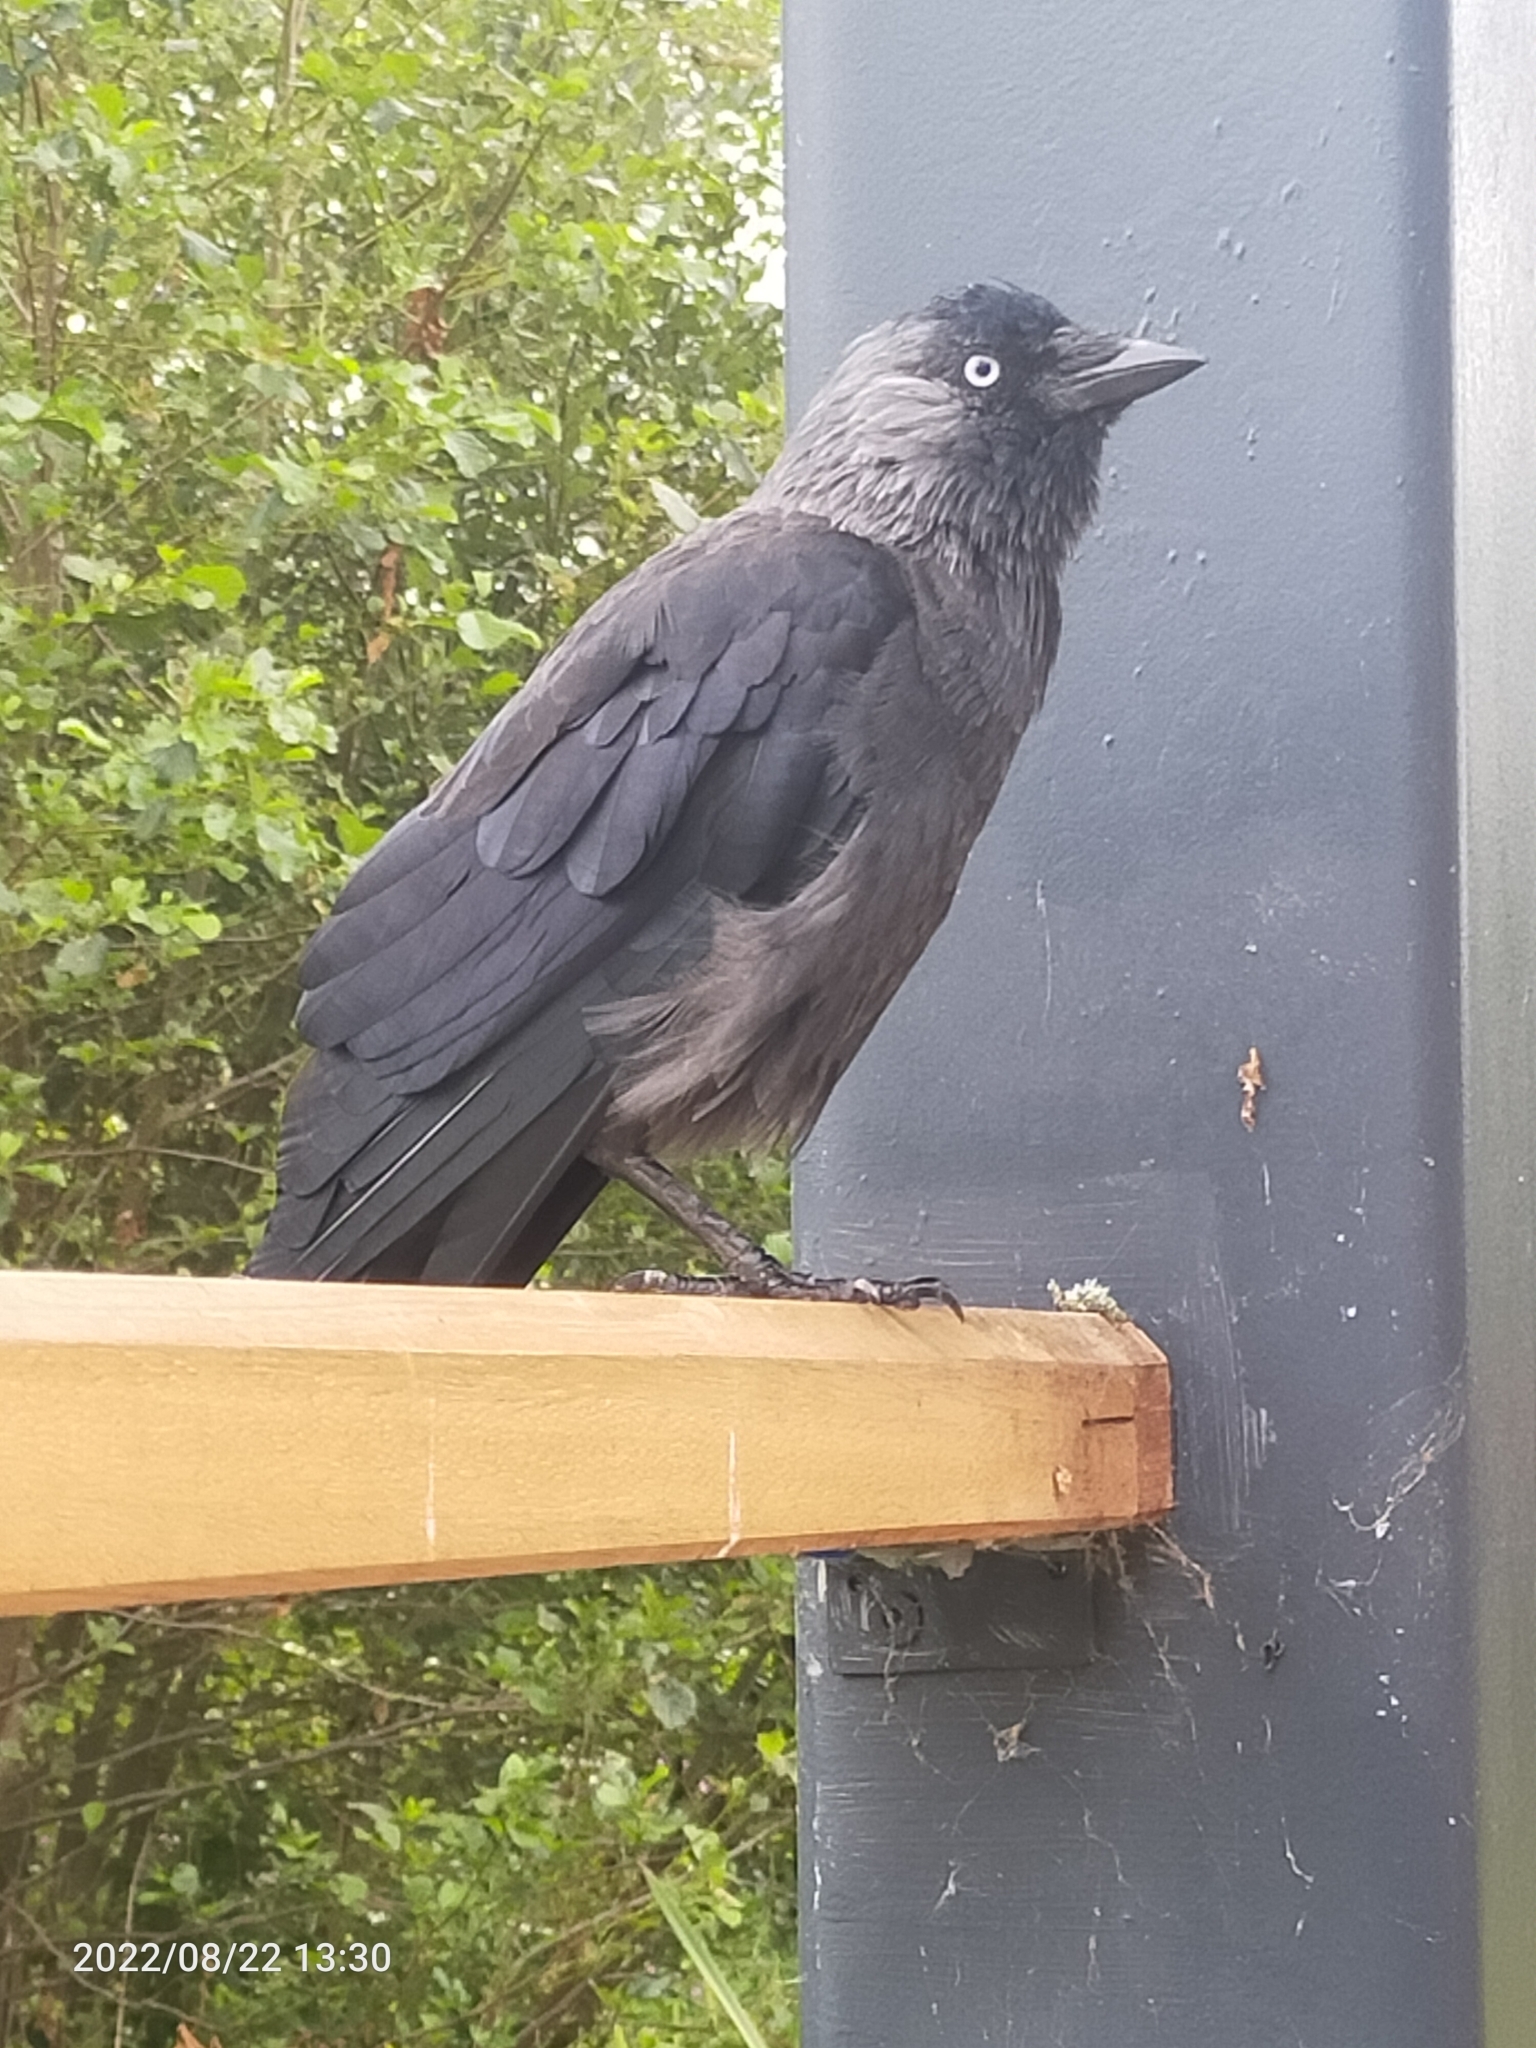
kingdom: Animalia
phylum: Chordata
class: Aves
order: Passeriformes
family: Corvidae
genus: Coloeus
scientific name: Coloeus monedula
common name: Western jackdaw
